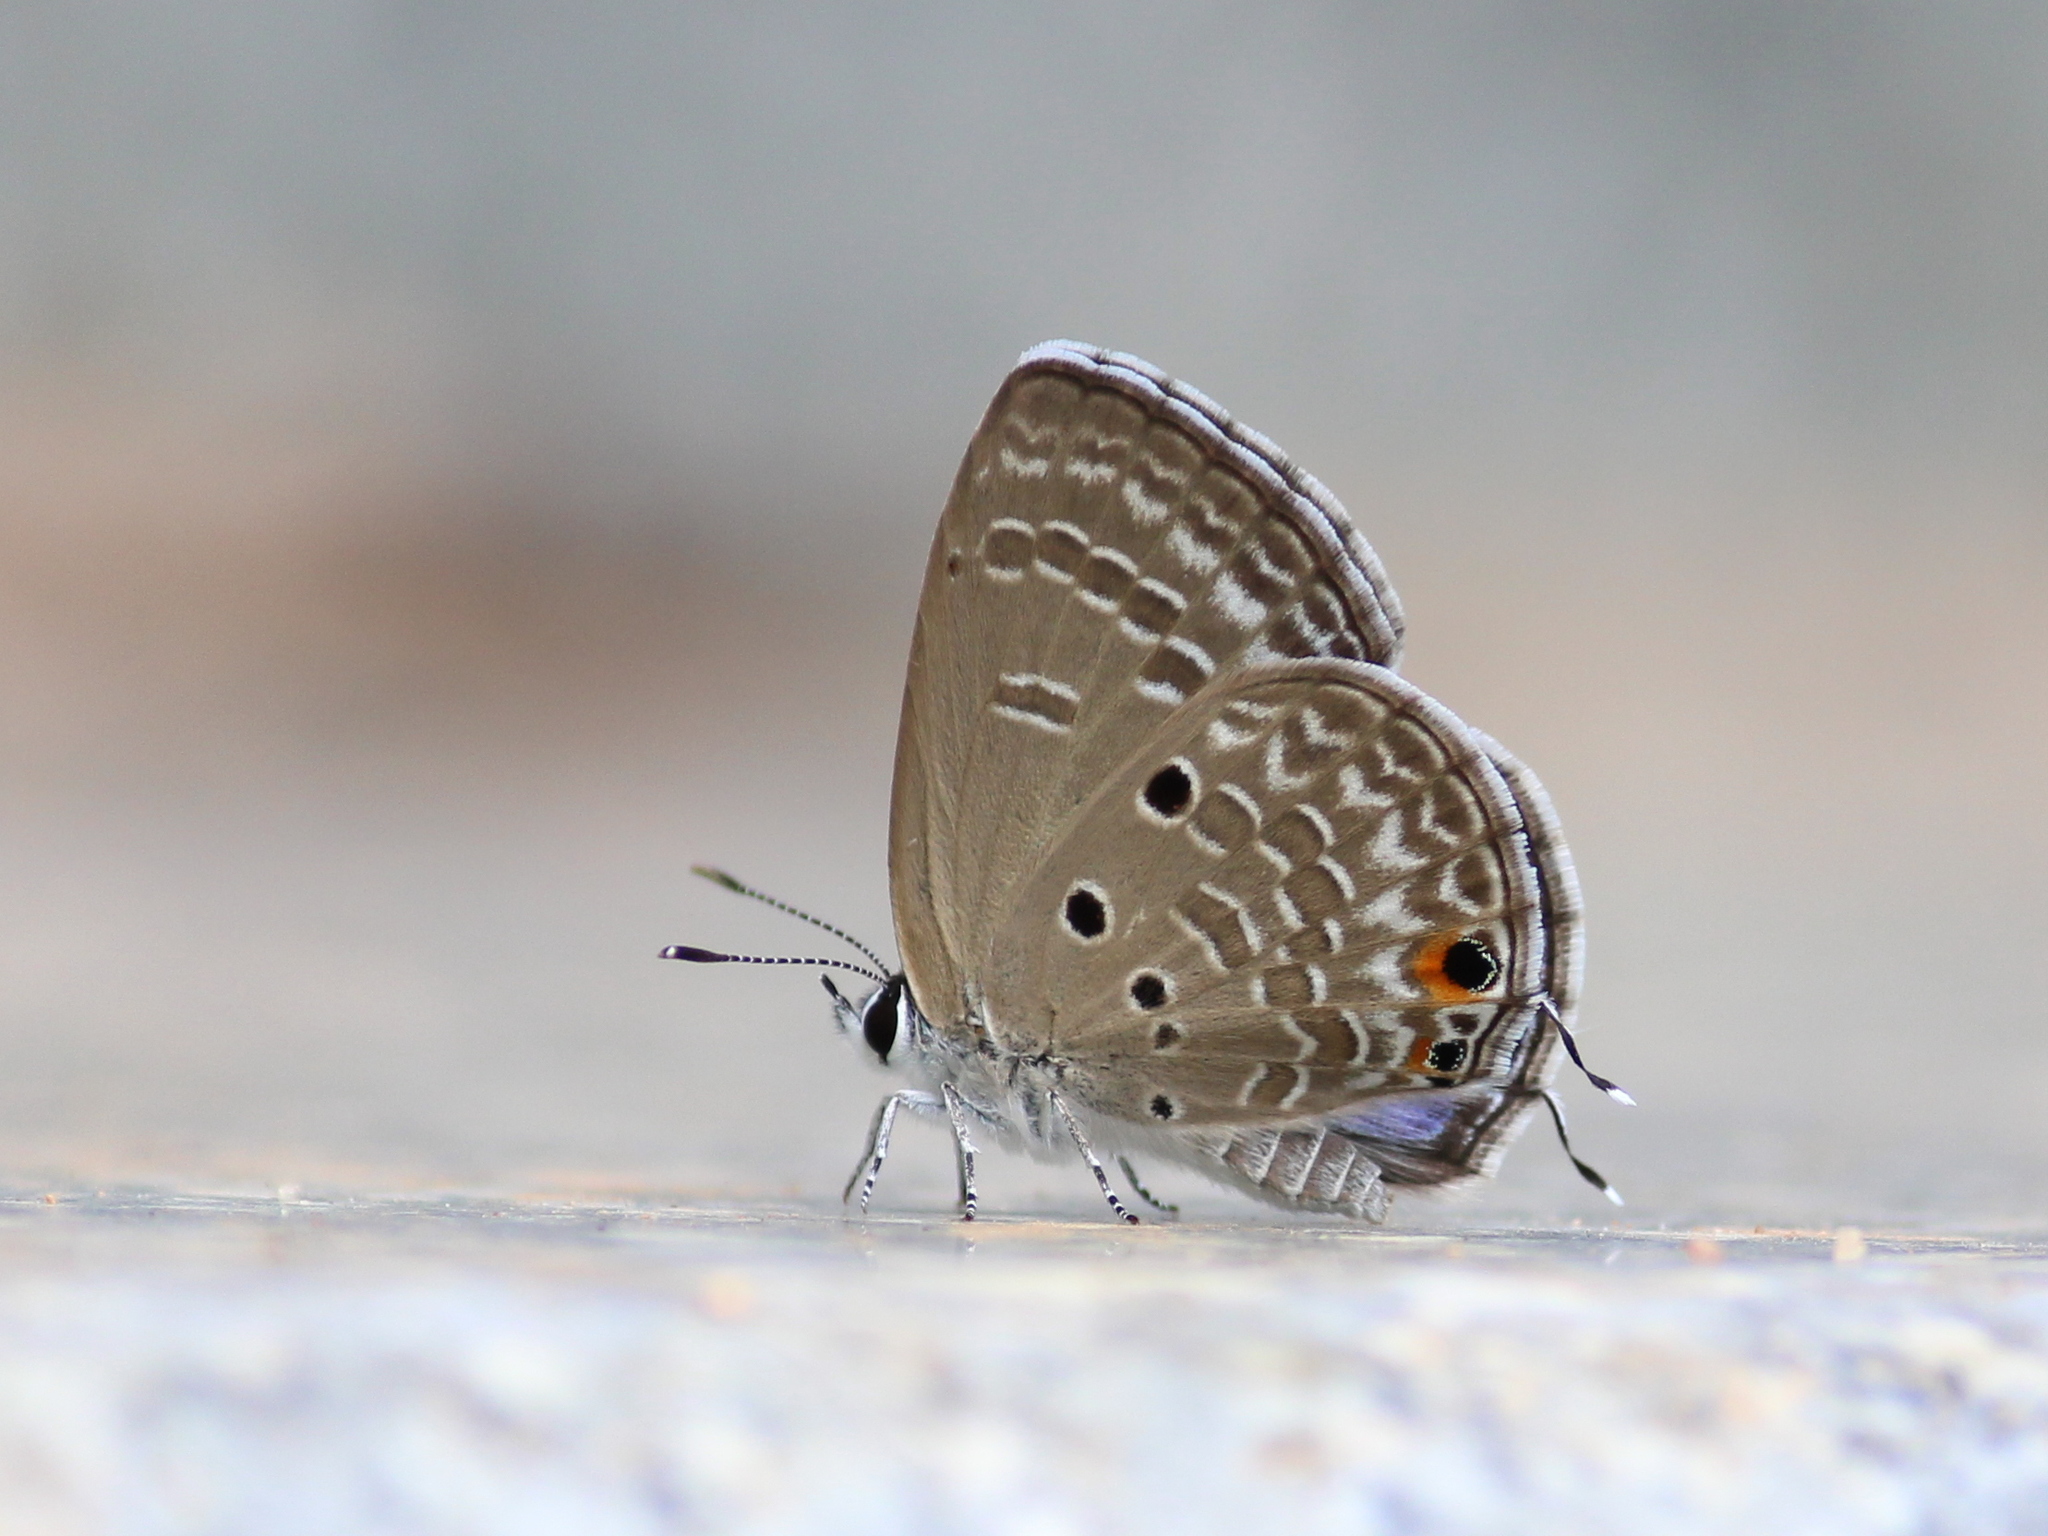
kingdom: Animalia
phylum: Arthropoda
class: Insecta
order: Lepidoptera
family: Lycaenidae
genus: Luthrodes
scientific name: Luthrodes pandava
